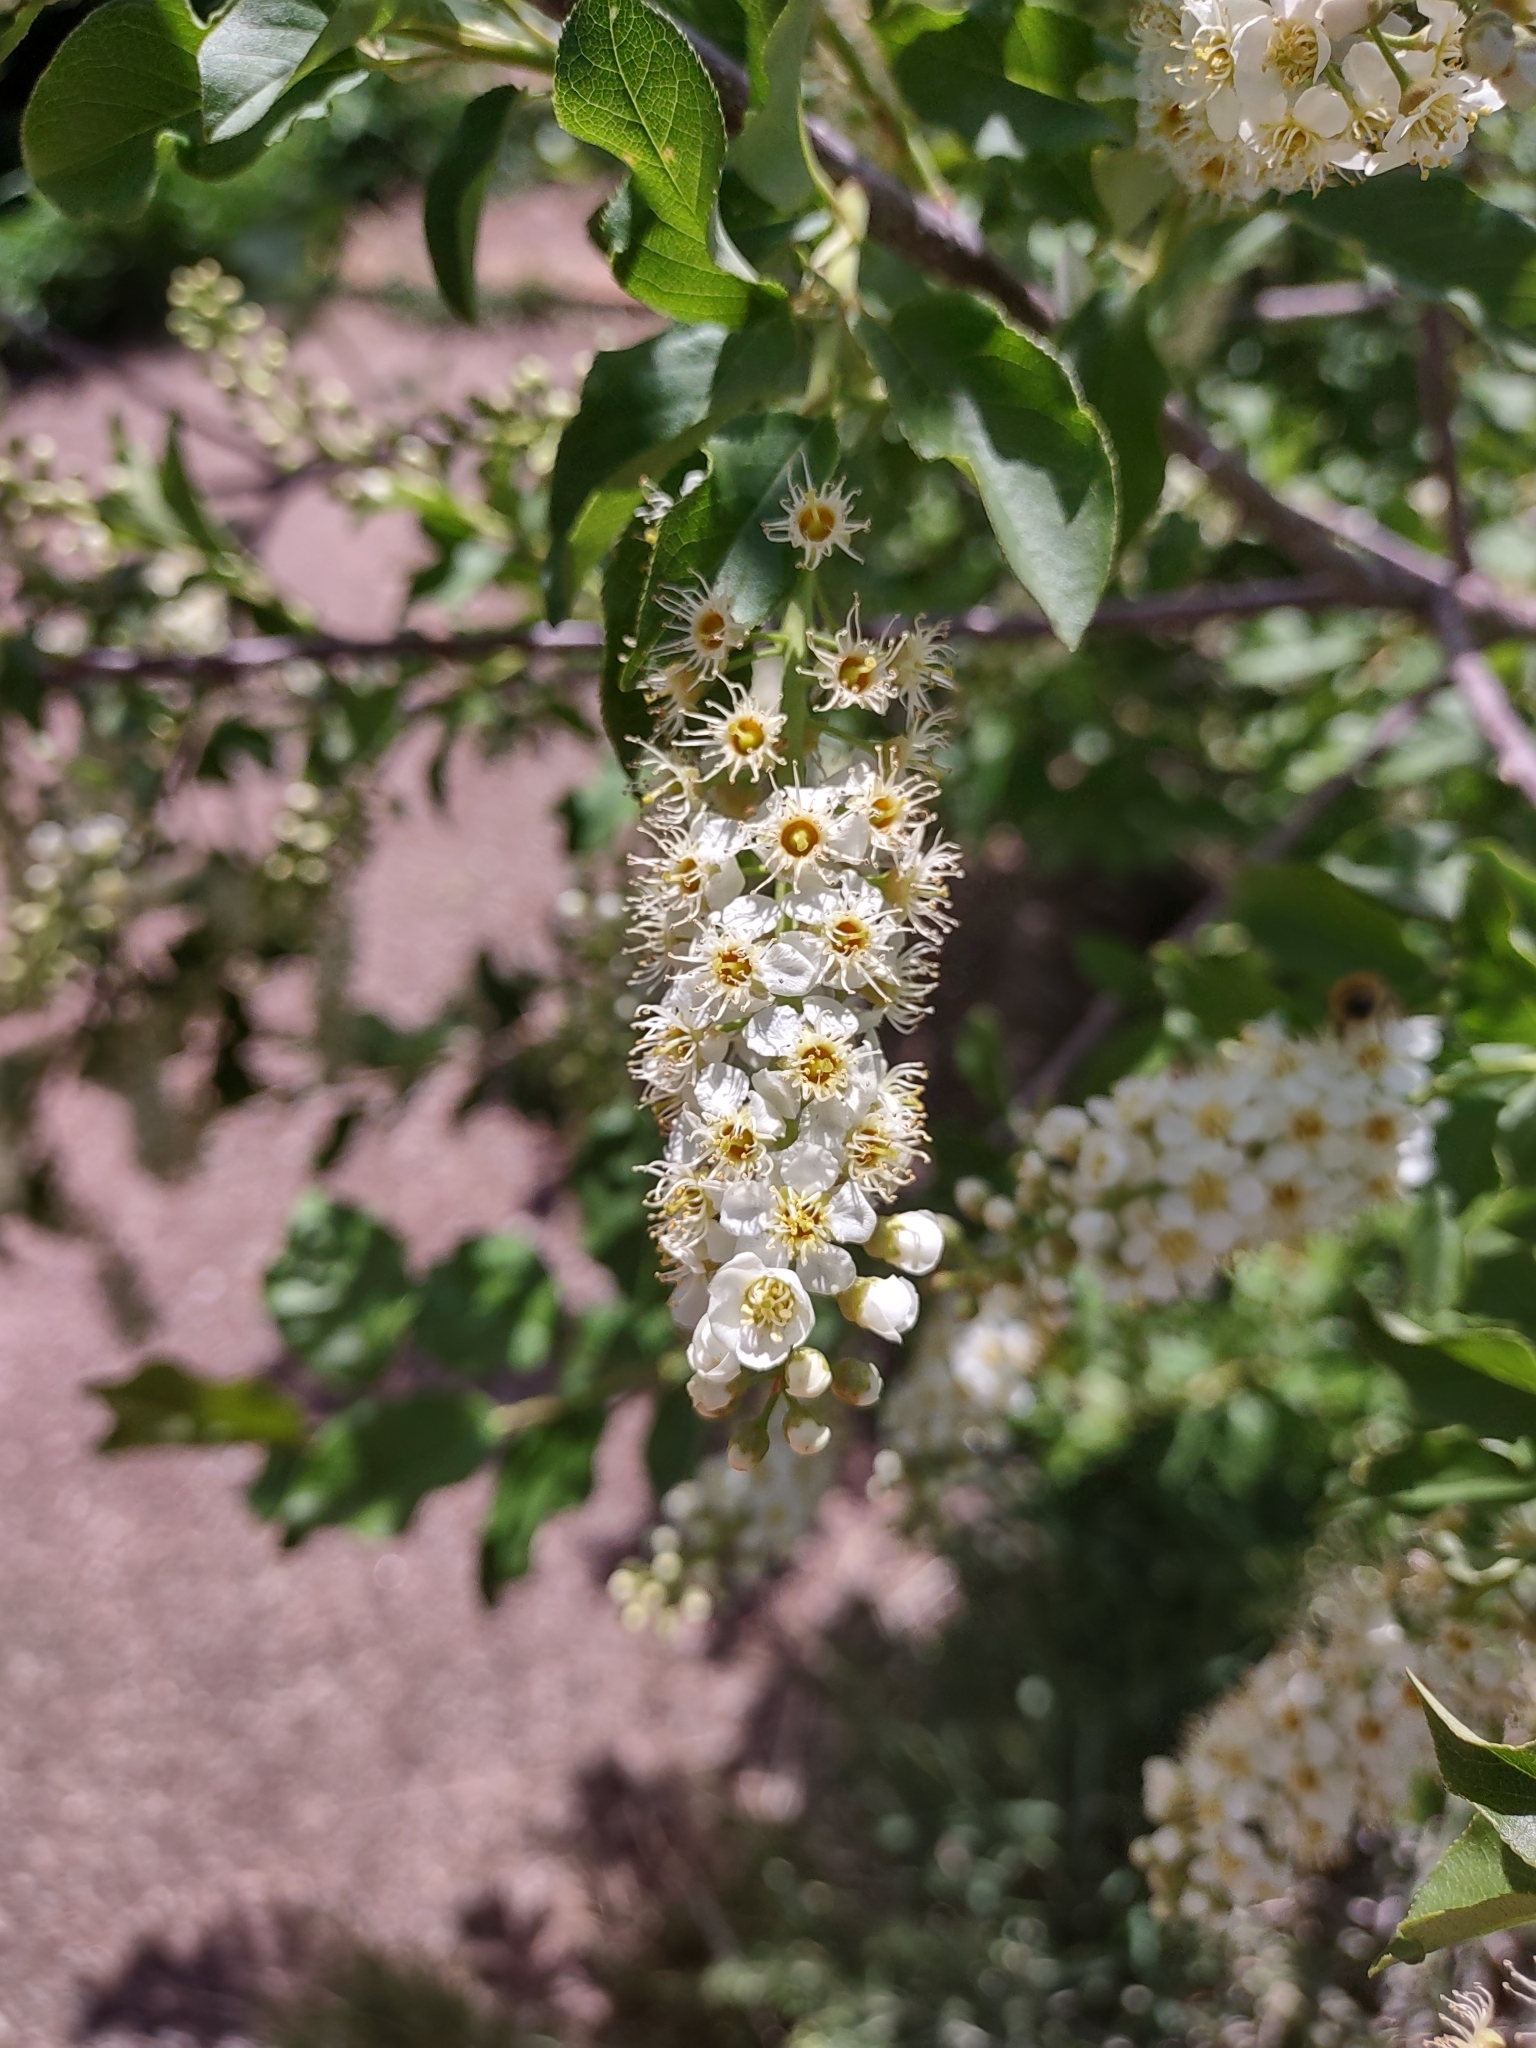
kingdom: Plantae
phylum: Tracheophyta
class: Magnoliopsida
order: Rosales
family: Rosaceae
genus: Prunus
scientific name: Prunus virginiana
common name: Chokecherry
